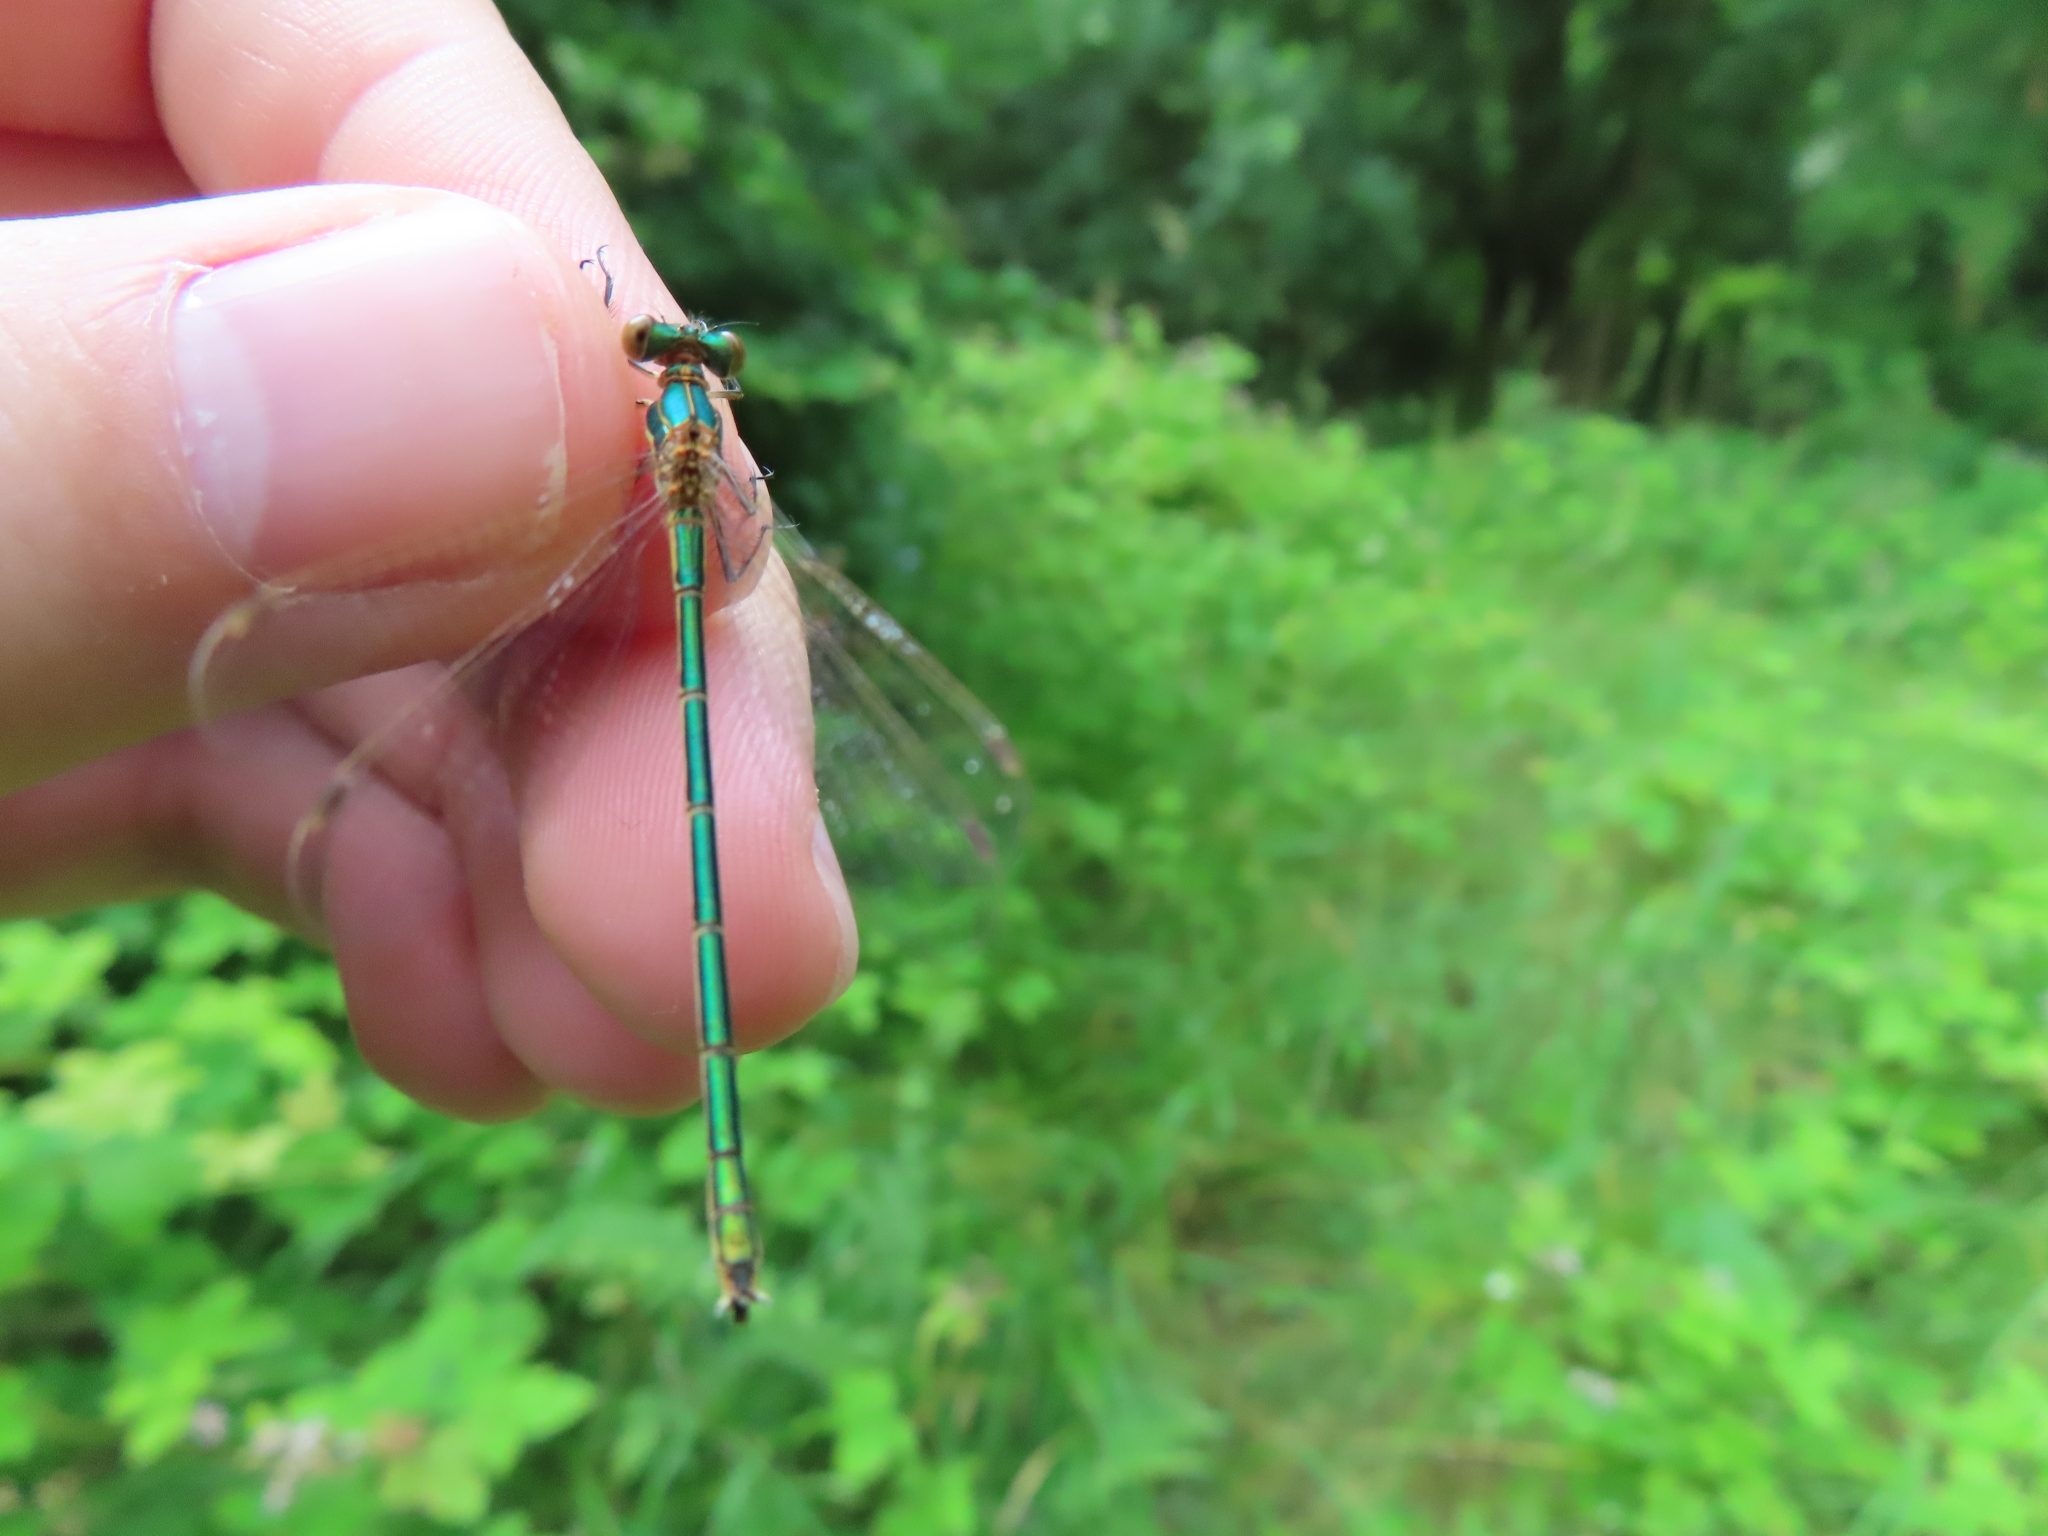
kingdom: Animalia
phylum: Arthropoda
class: Insecta
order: Odonata
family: Lestidae
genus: Lestes
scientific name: Lestes sponsa
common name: Common spreadwing
